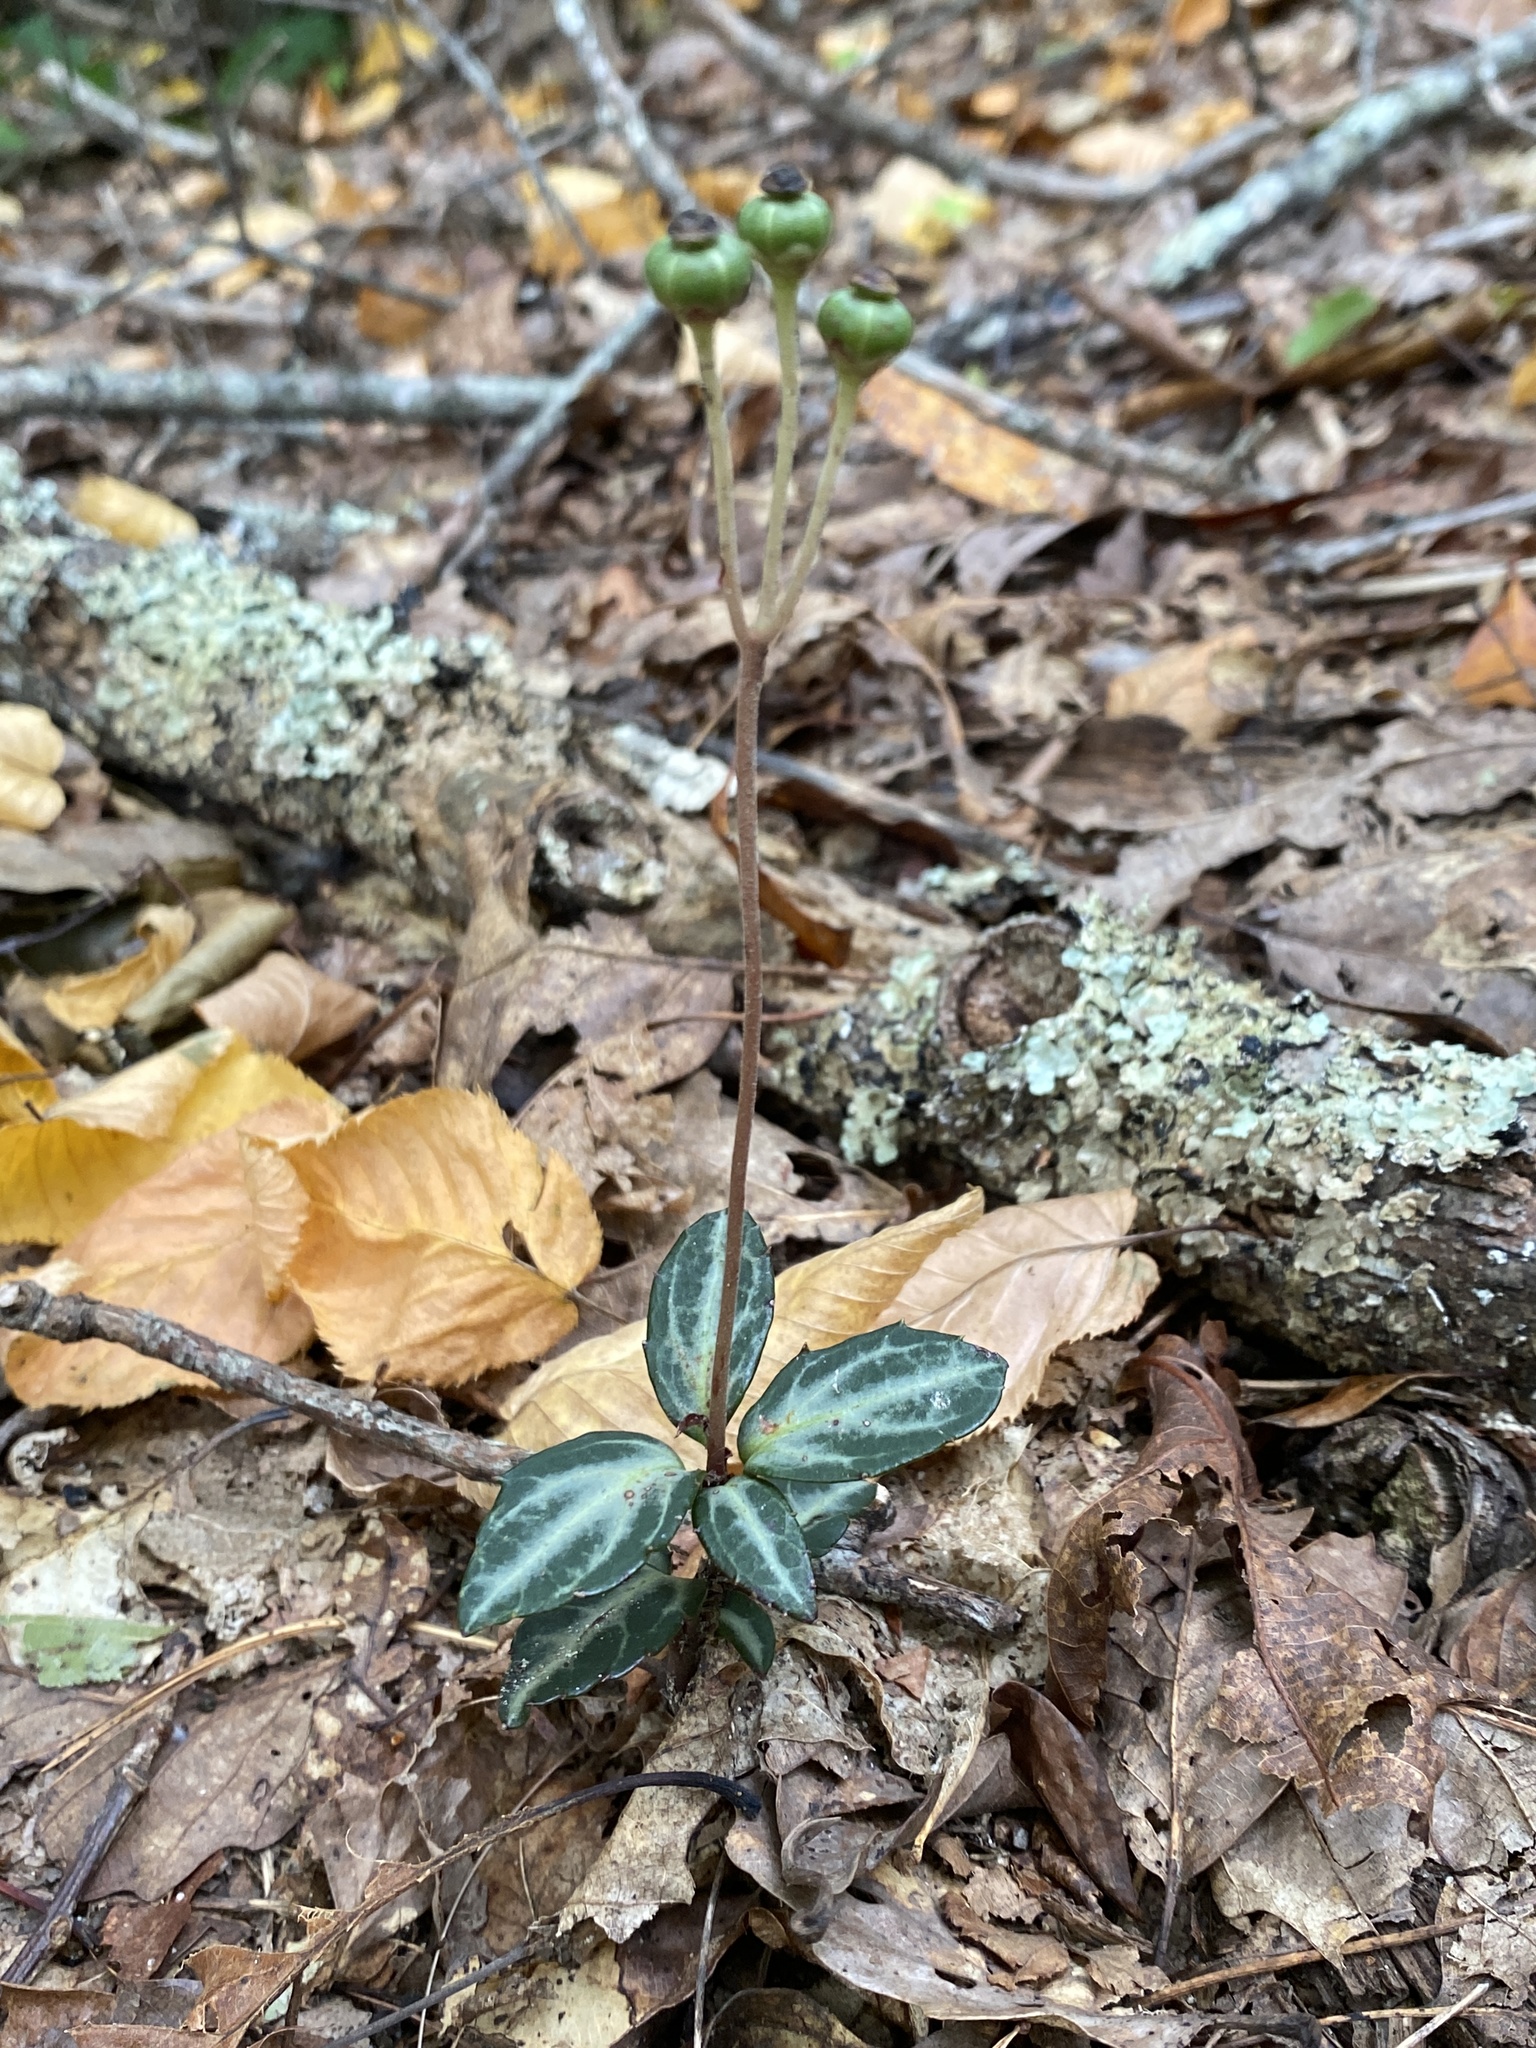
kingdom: Plantae
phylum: Tracheophyta
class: Magnoliopsida
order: Ericales
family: Ericaceae
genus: Chimaphila
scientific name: Chimaphila maculata
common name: Spotted pipsissewa
